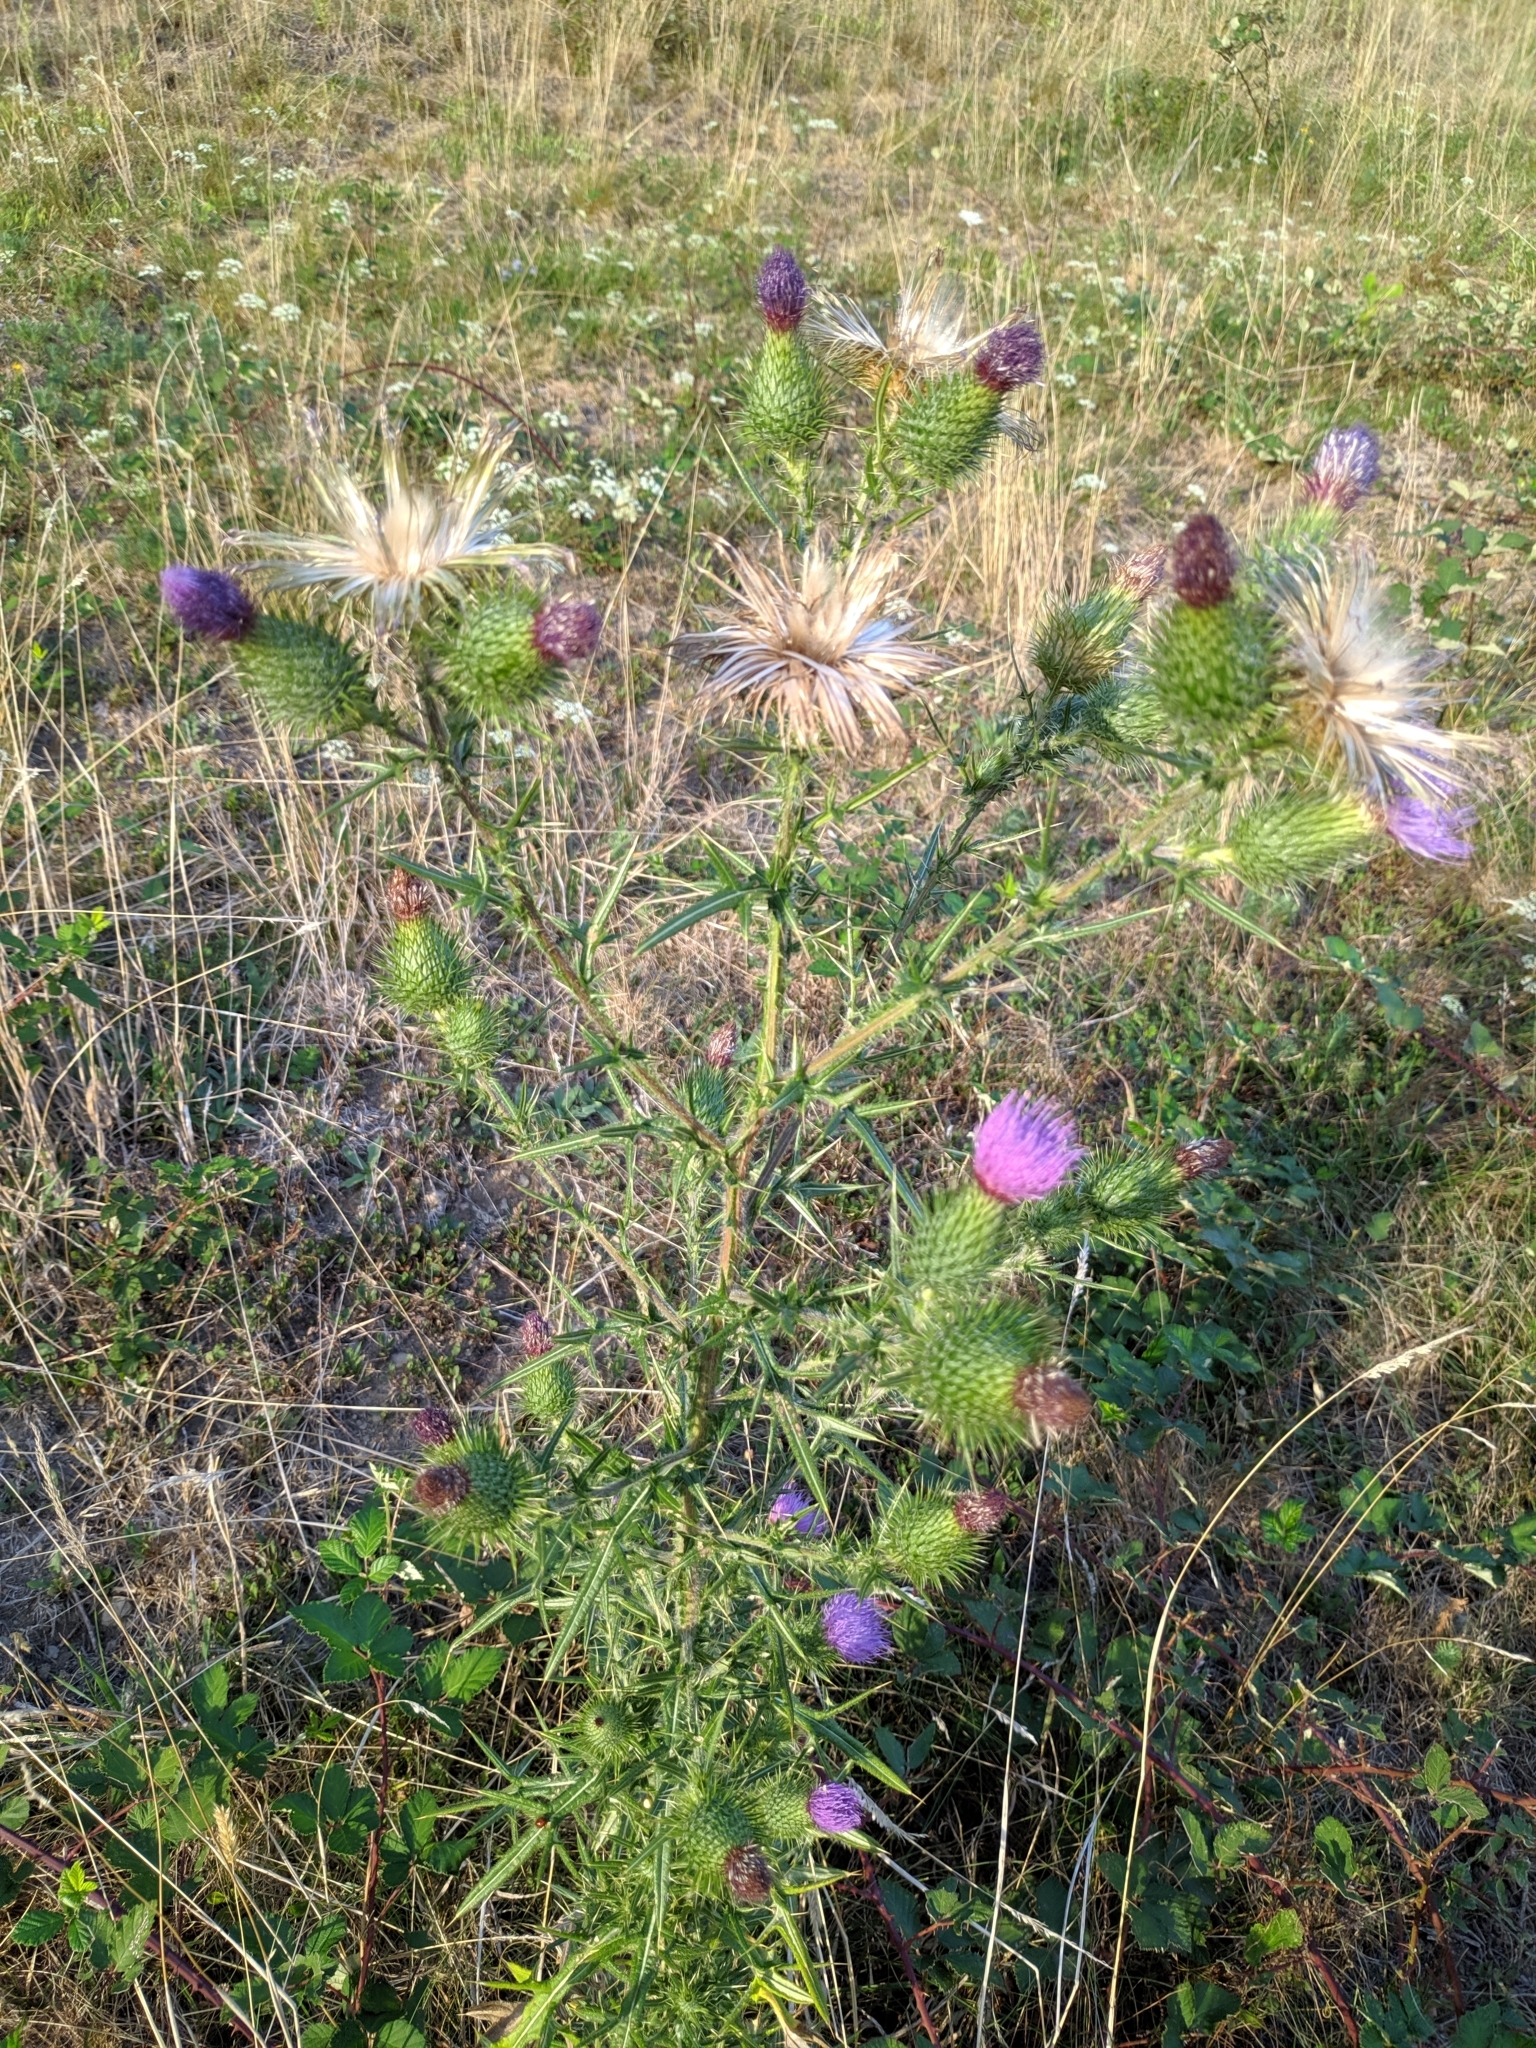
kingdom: Plantae
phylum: Tracheophyta
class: Magnoliopsida
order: Asterales
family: Asteraceae
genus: Cirsium
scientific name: Cirsium vulgare
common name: Bull thistle
